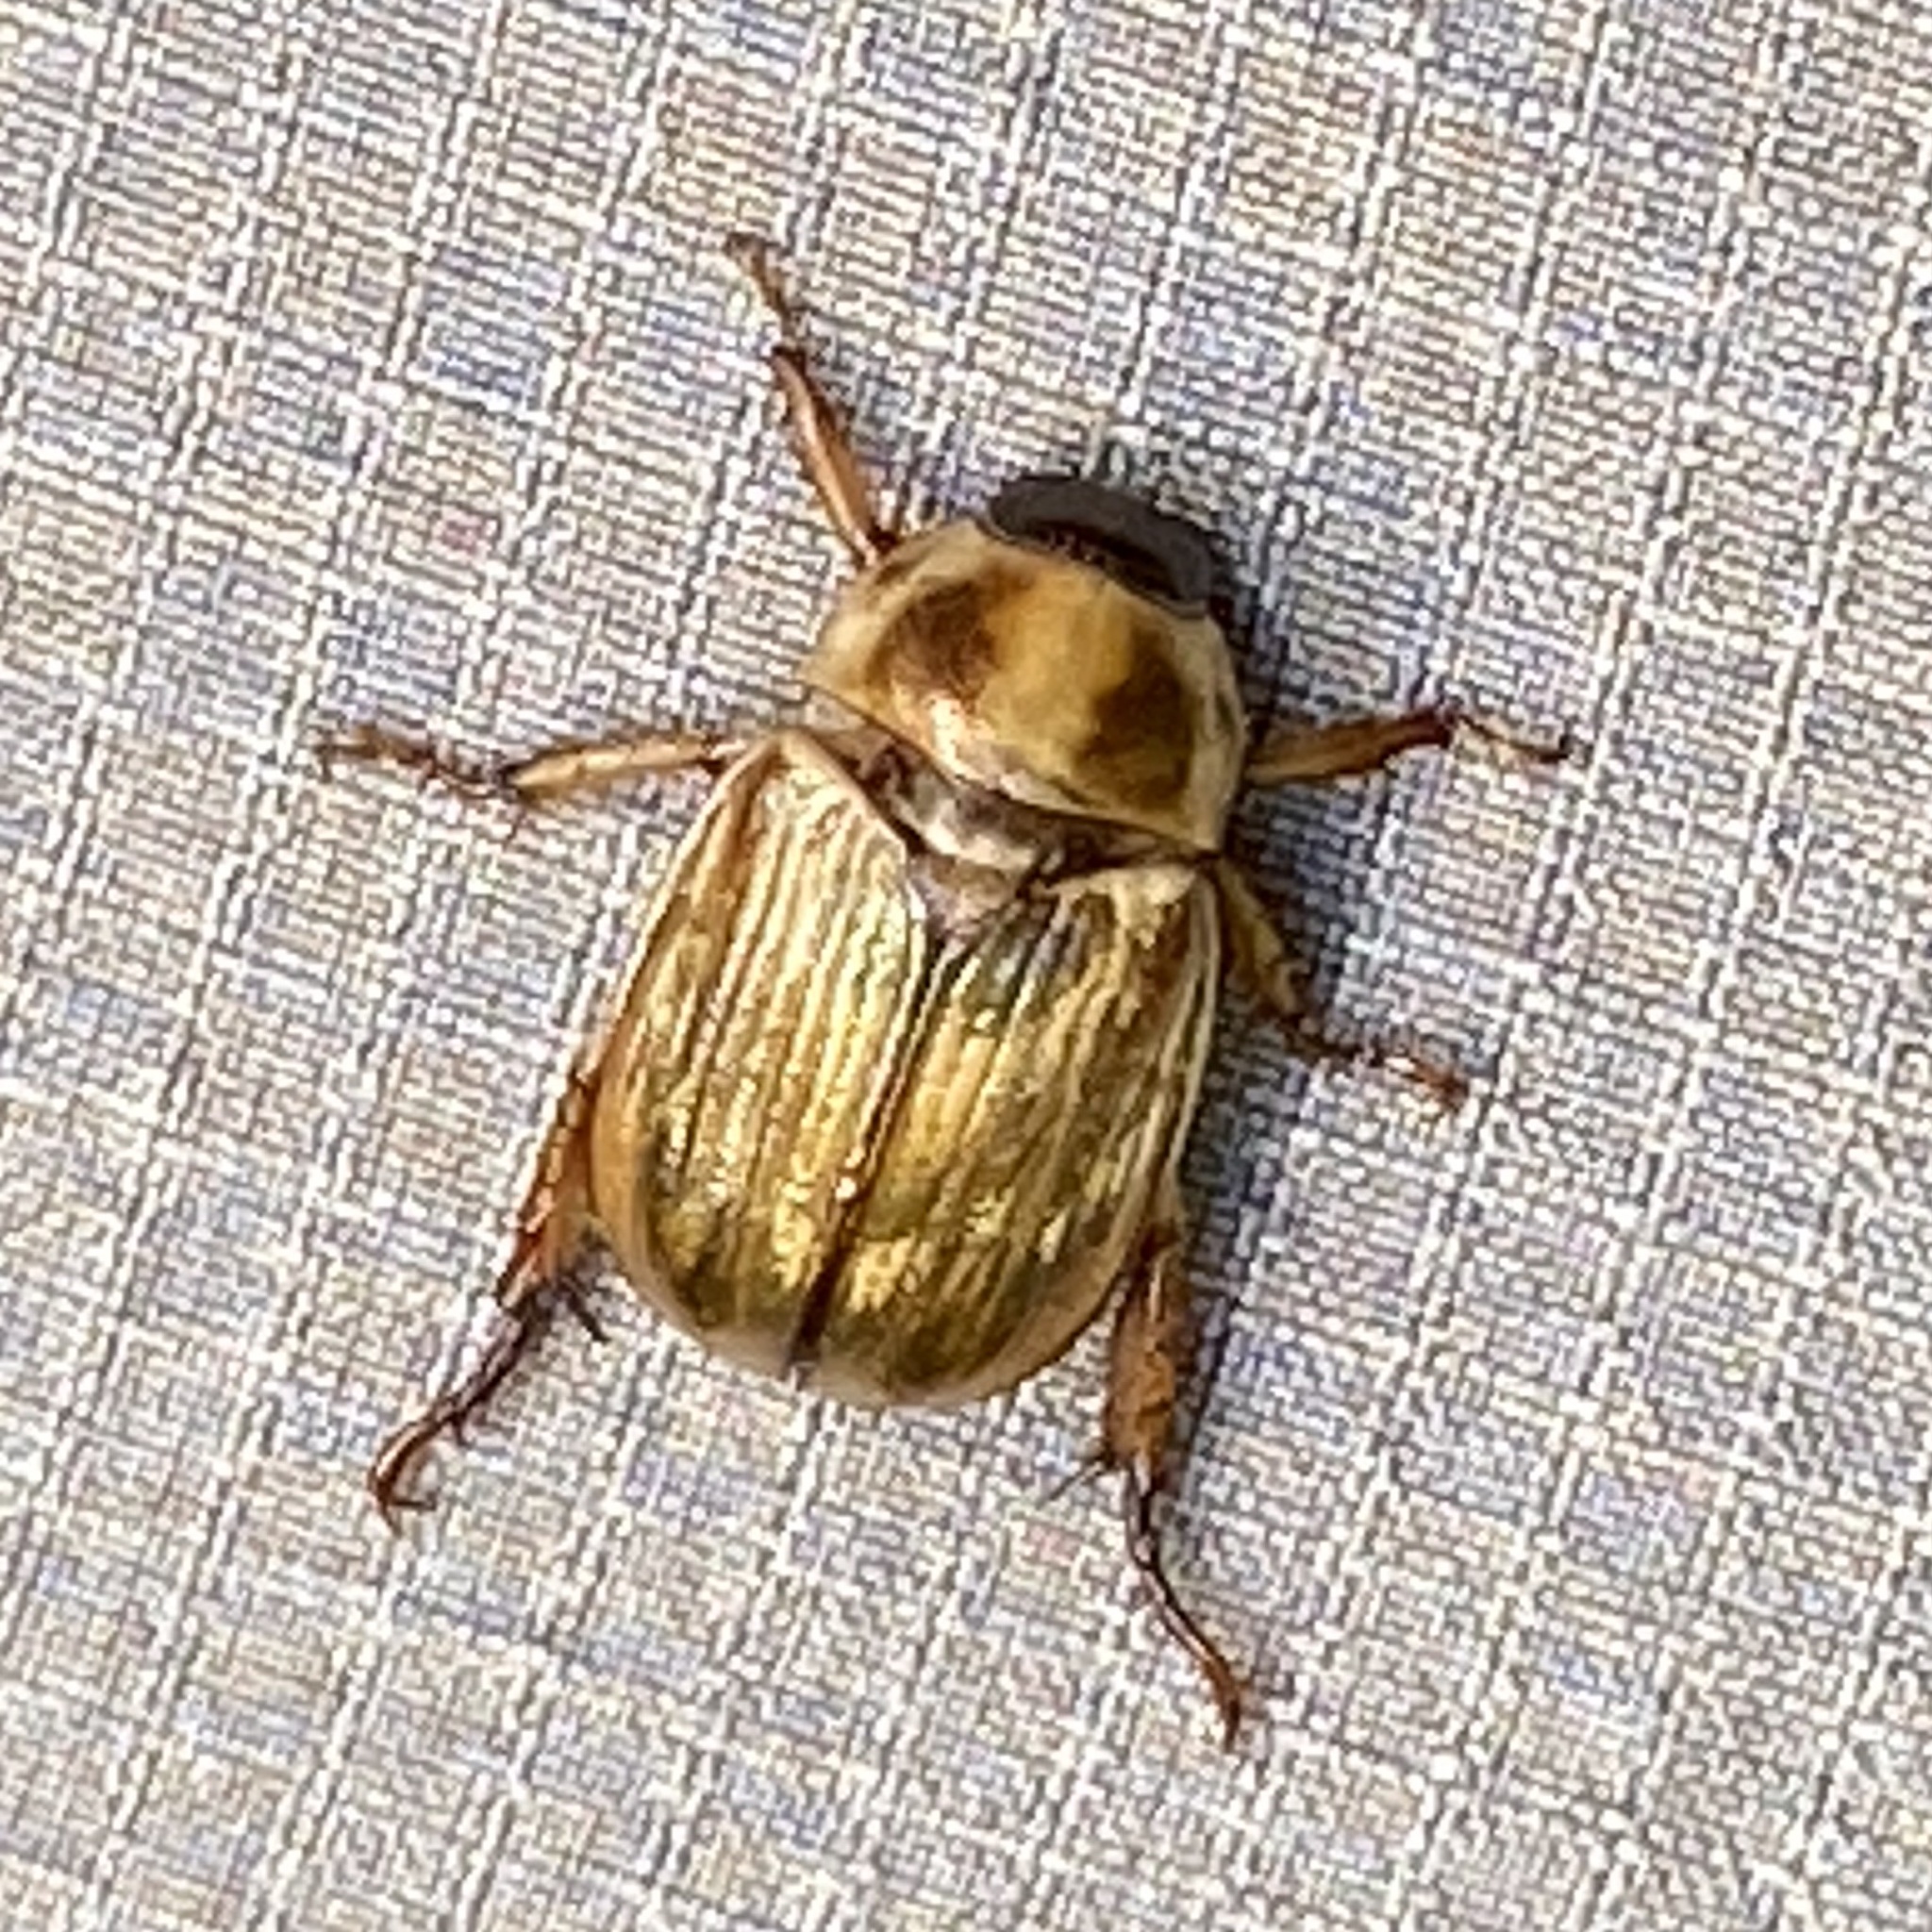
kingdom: Animalia
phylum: Arthropoda
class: Insecta
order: Coleoptera
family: Scarabaeidae
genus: Exomala
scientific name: Exomala orientalis
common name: Oriental beetle
